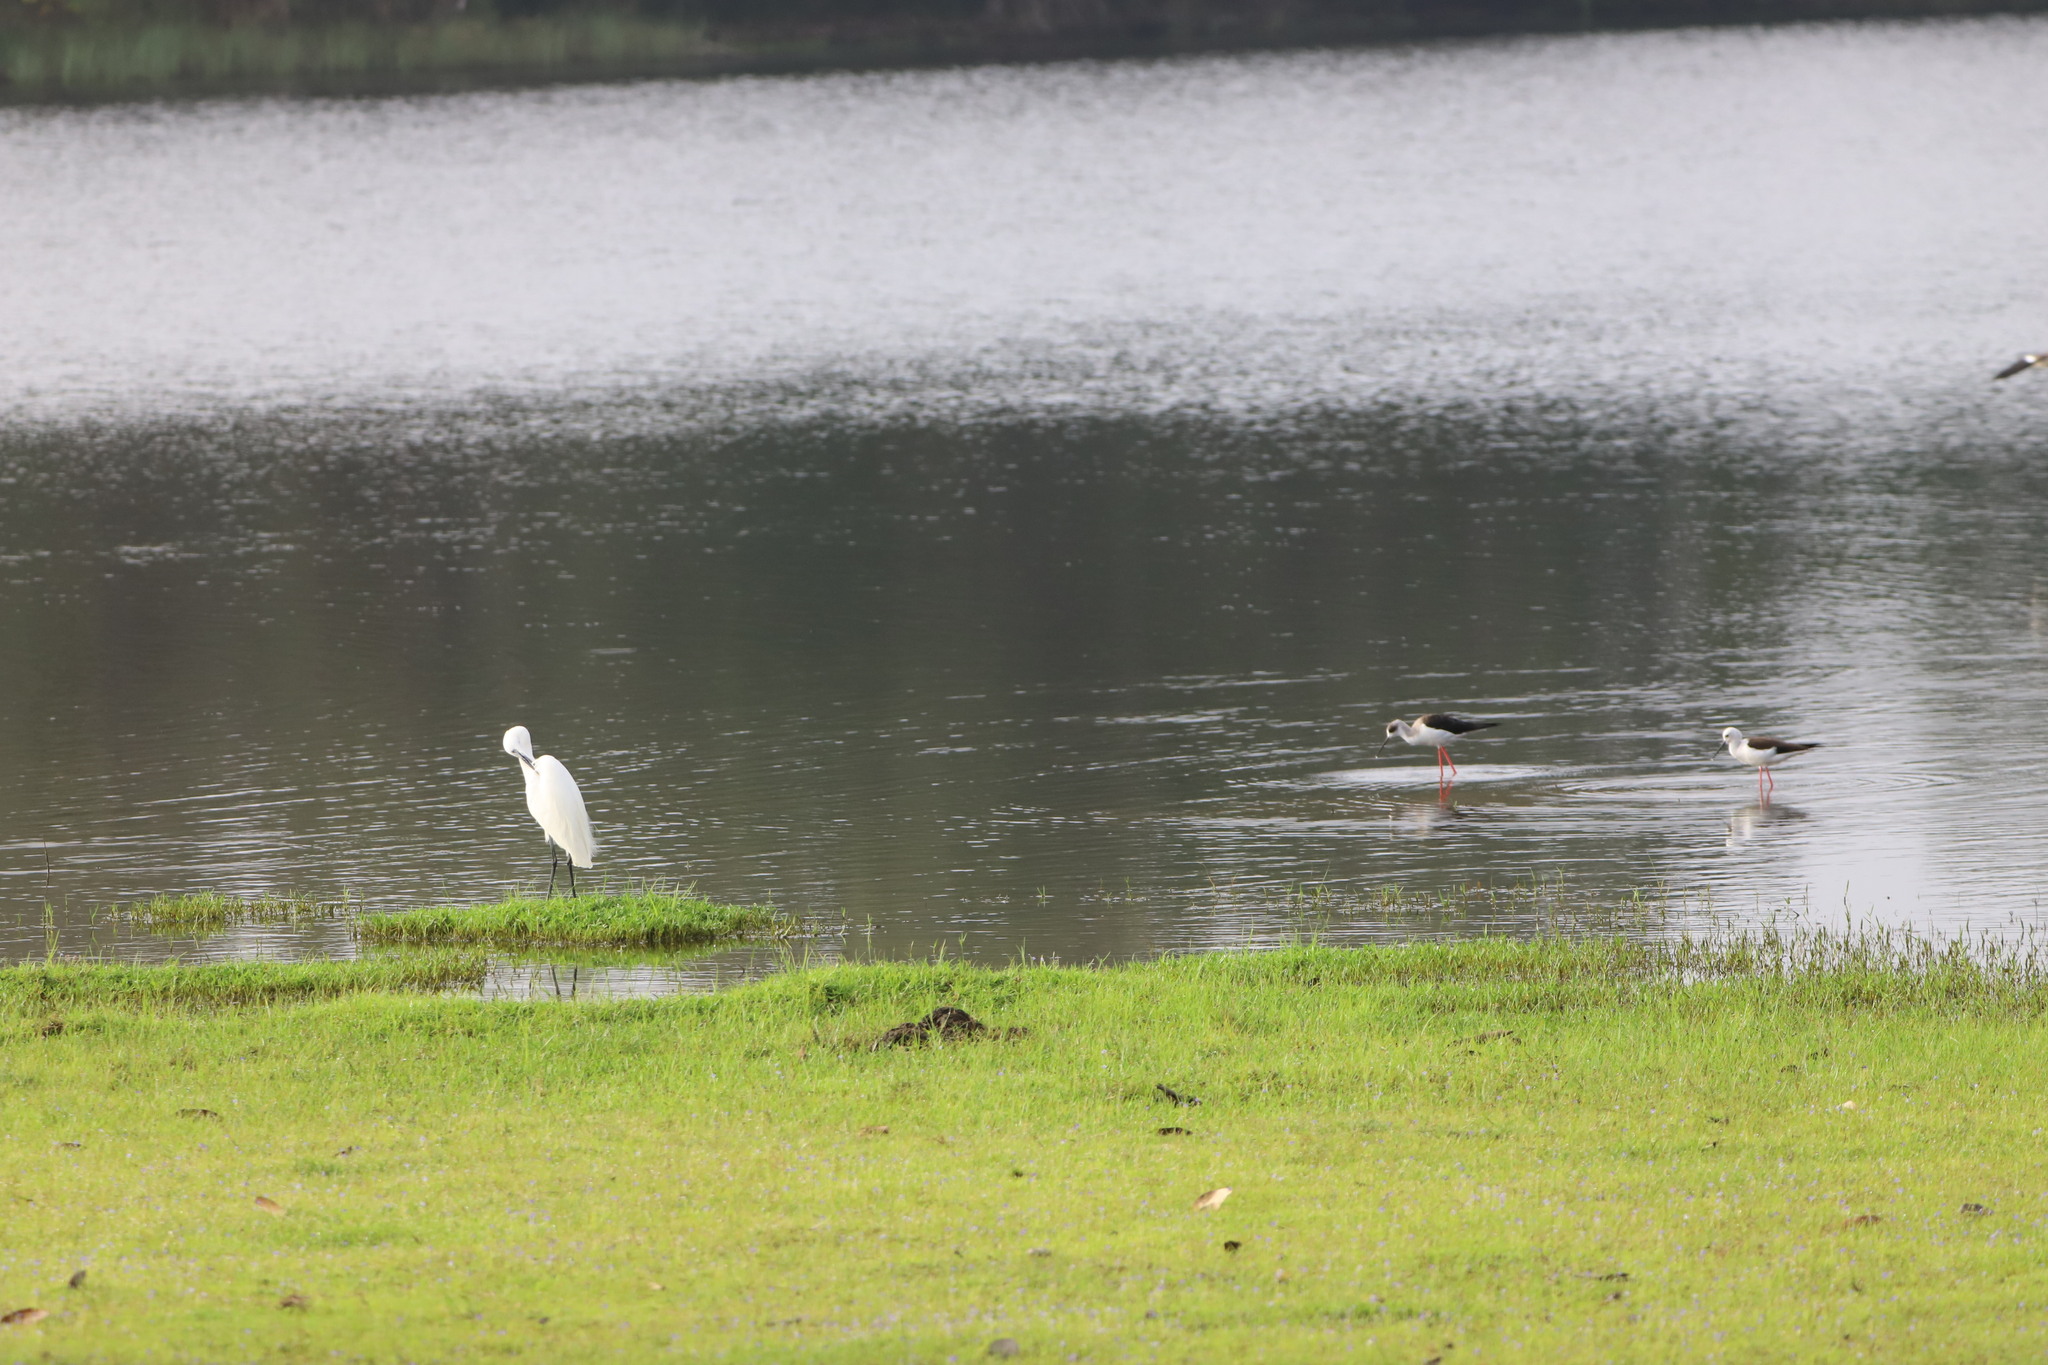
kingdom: Animalia
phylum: Chordata
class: Aves
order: Charadriiformes
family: Recurvirostridae
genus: Himantopus
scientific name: Himantopus himantopus
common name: Black-winged stilt
